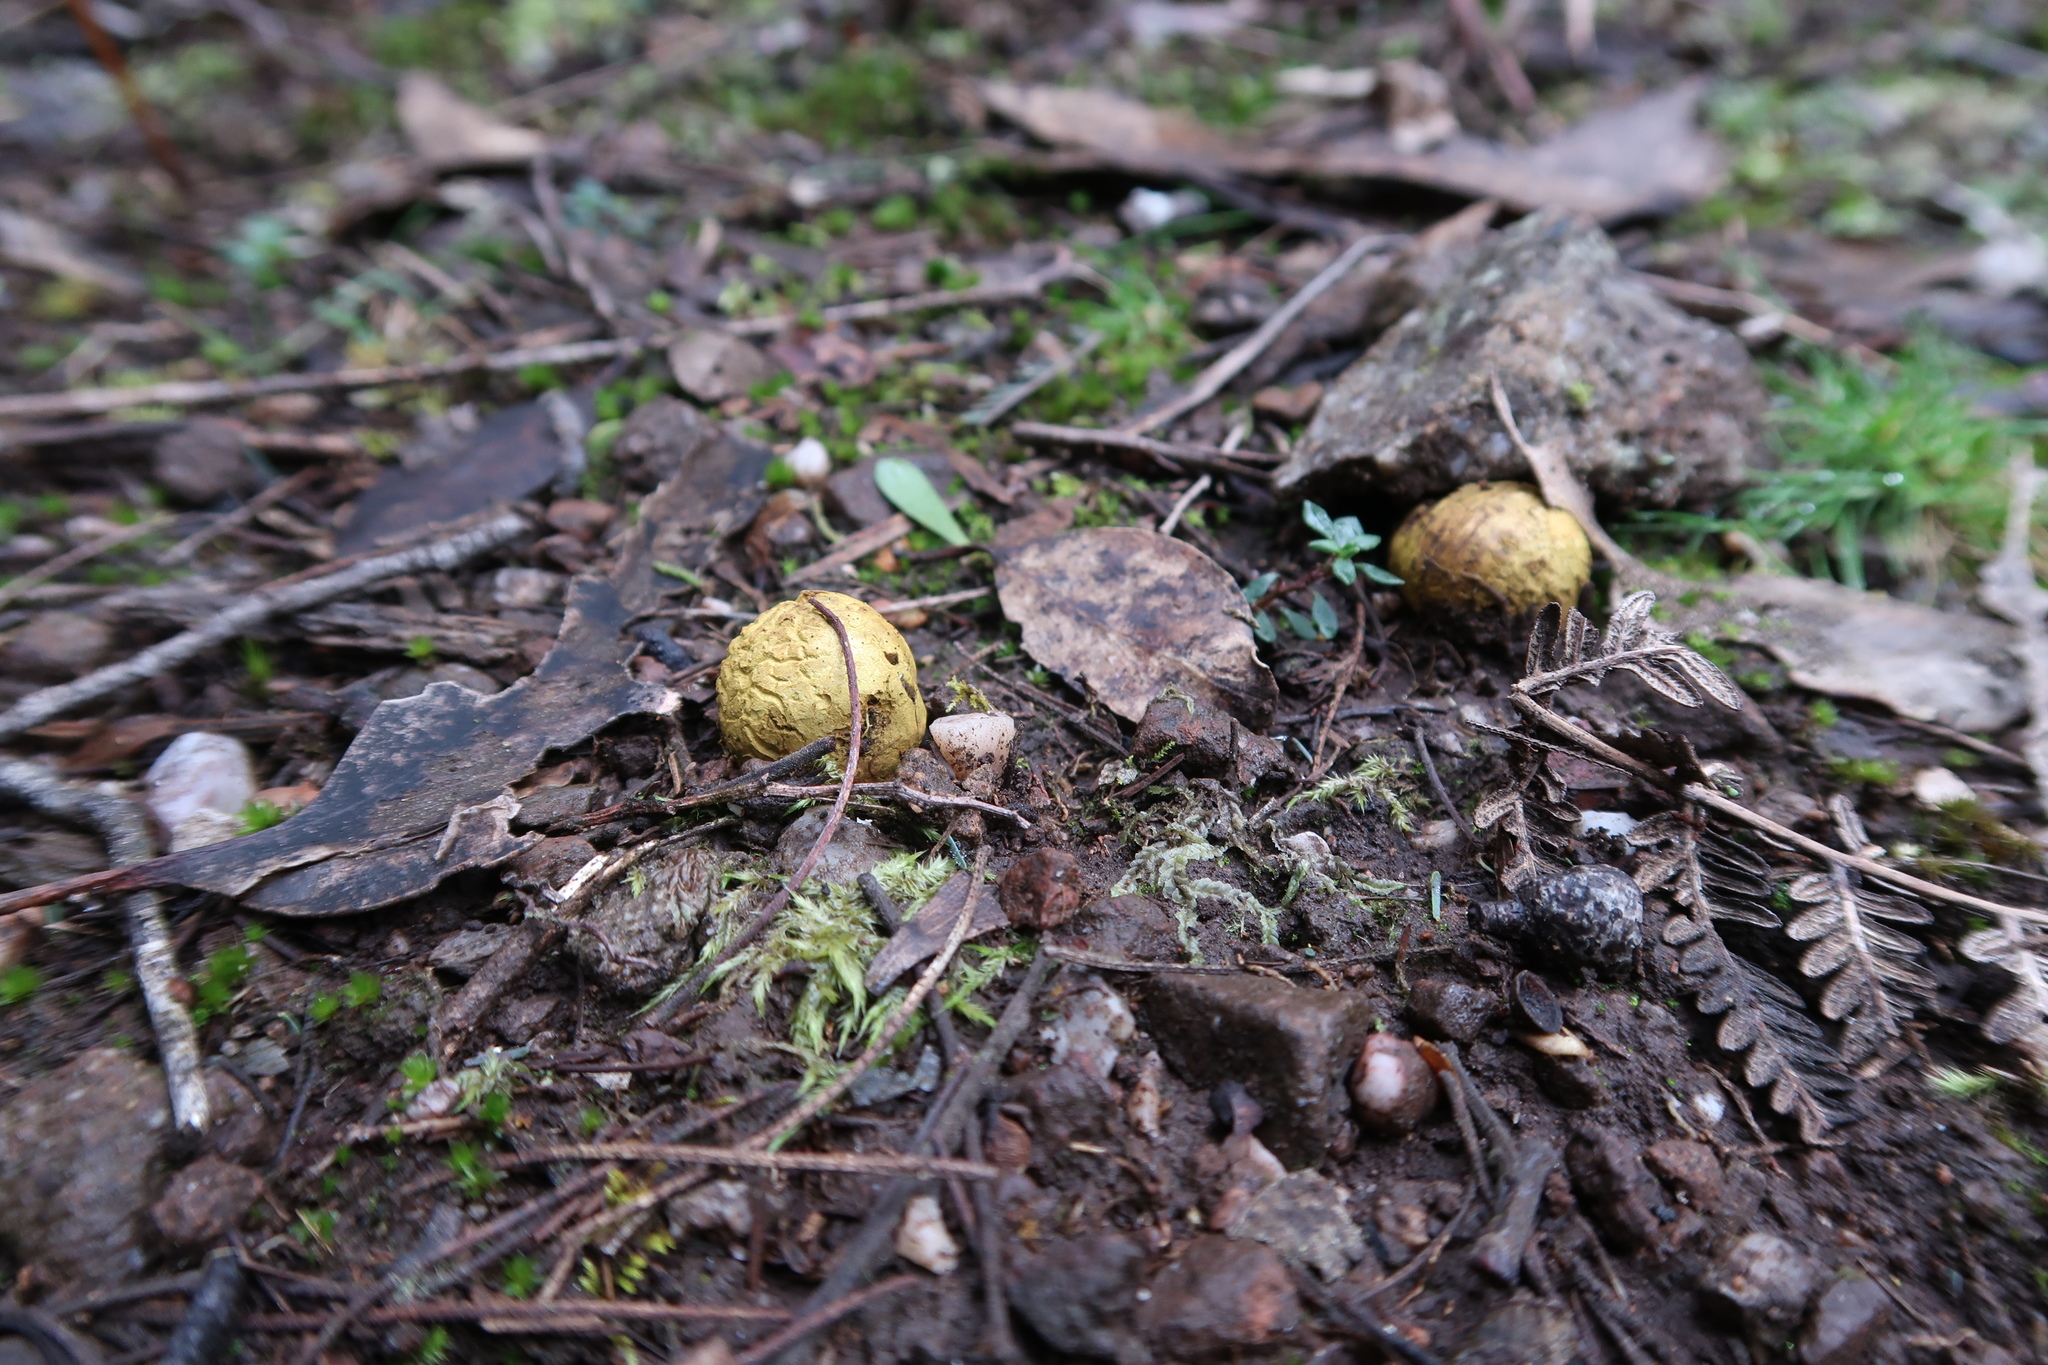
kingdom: Fungi
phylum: Basidiomycota
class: Agaricomycetes
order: Boletales
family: Sclerodermataceae
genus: Scleroderma
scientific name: Scleroderma cepa
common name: Onion earthball
